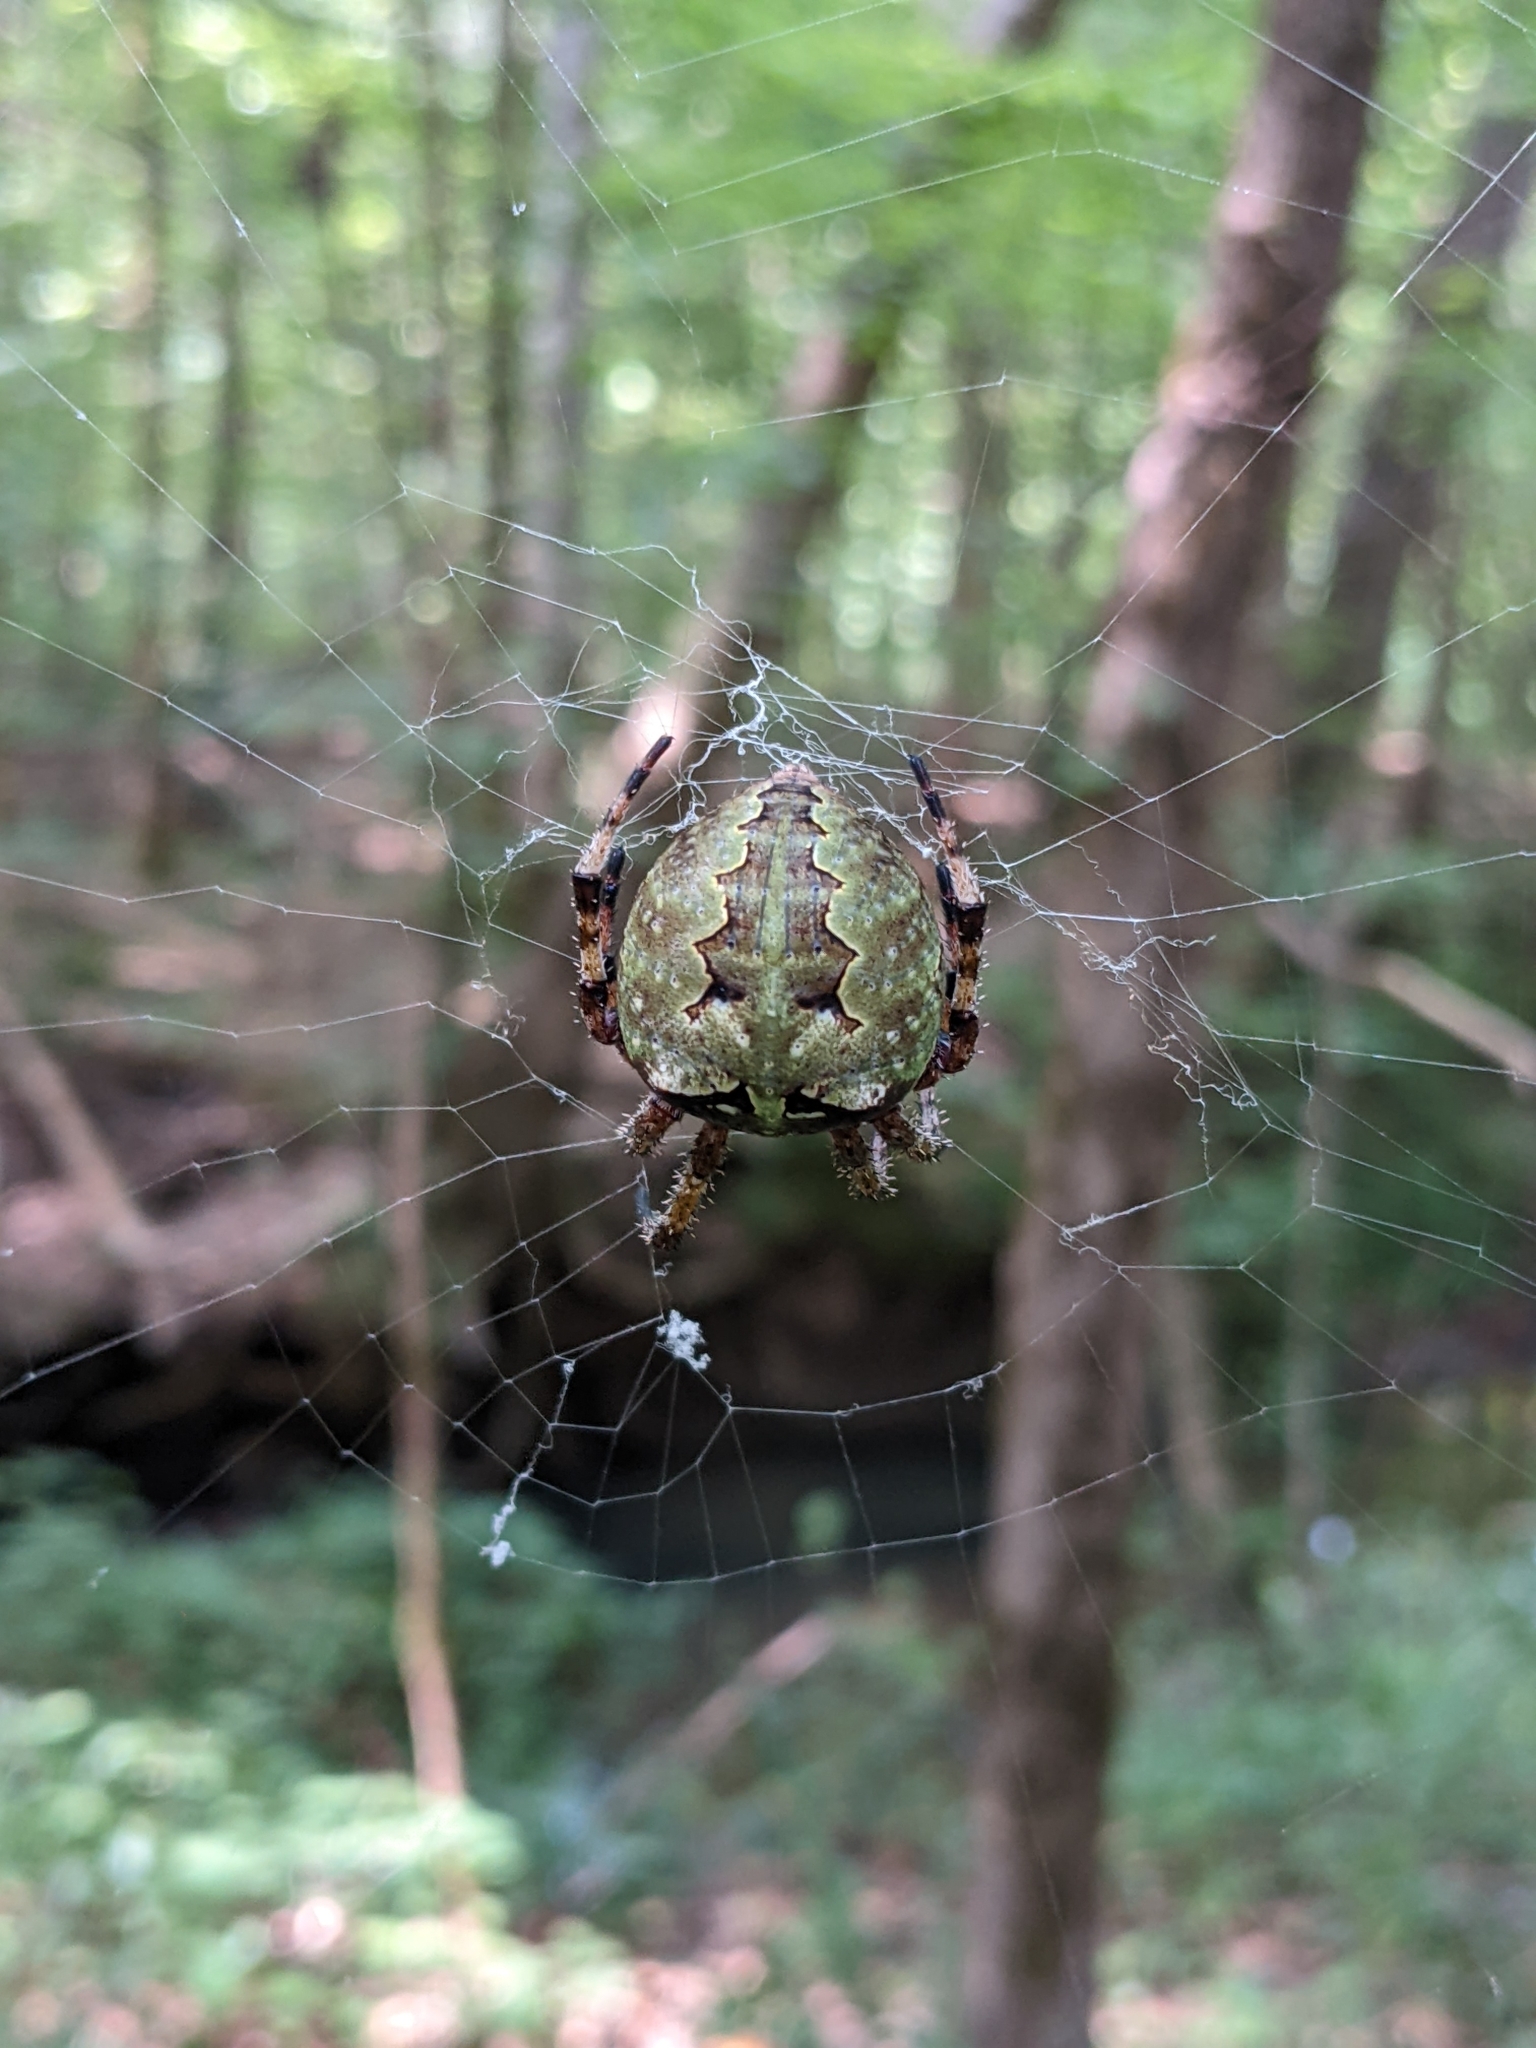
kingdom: Animalia
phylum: Arthropoda
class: Arachnida
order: Araneae
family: Araneidae
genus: Araneus
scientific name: Araneus bicentenarius
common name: Giant lichen orbweaver
